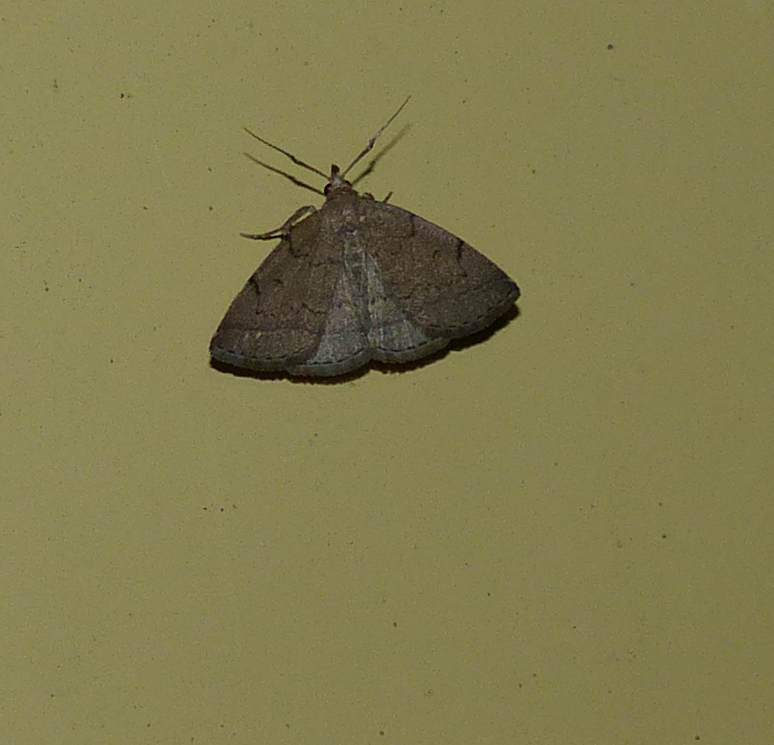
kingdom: Animalia
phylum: Arthropoda
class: Insecta
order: Lepidoptera
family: Erebidae
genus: Zanclognatha
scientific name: Zanclognatha protumnusalis
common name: Complex fan-foot
